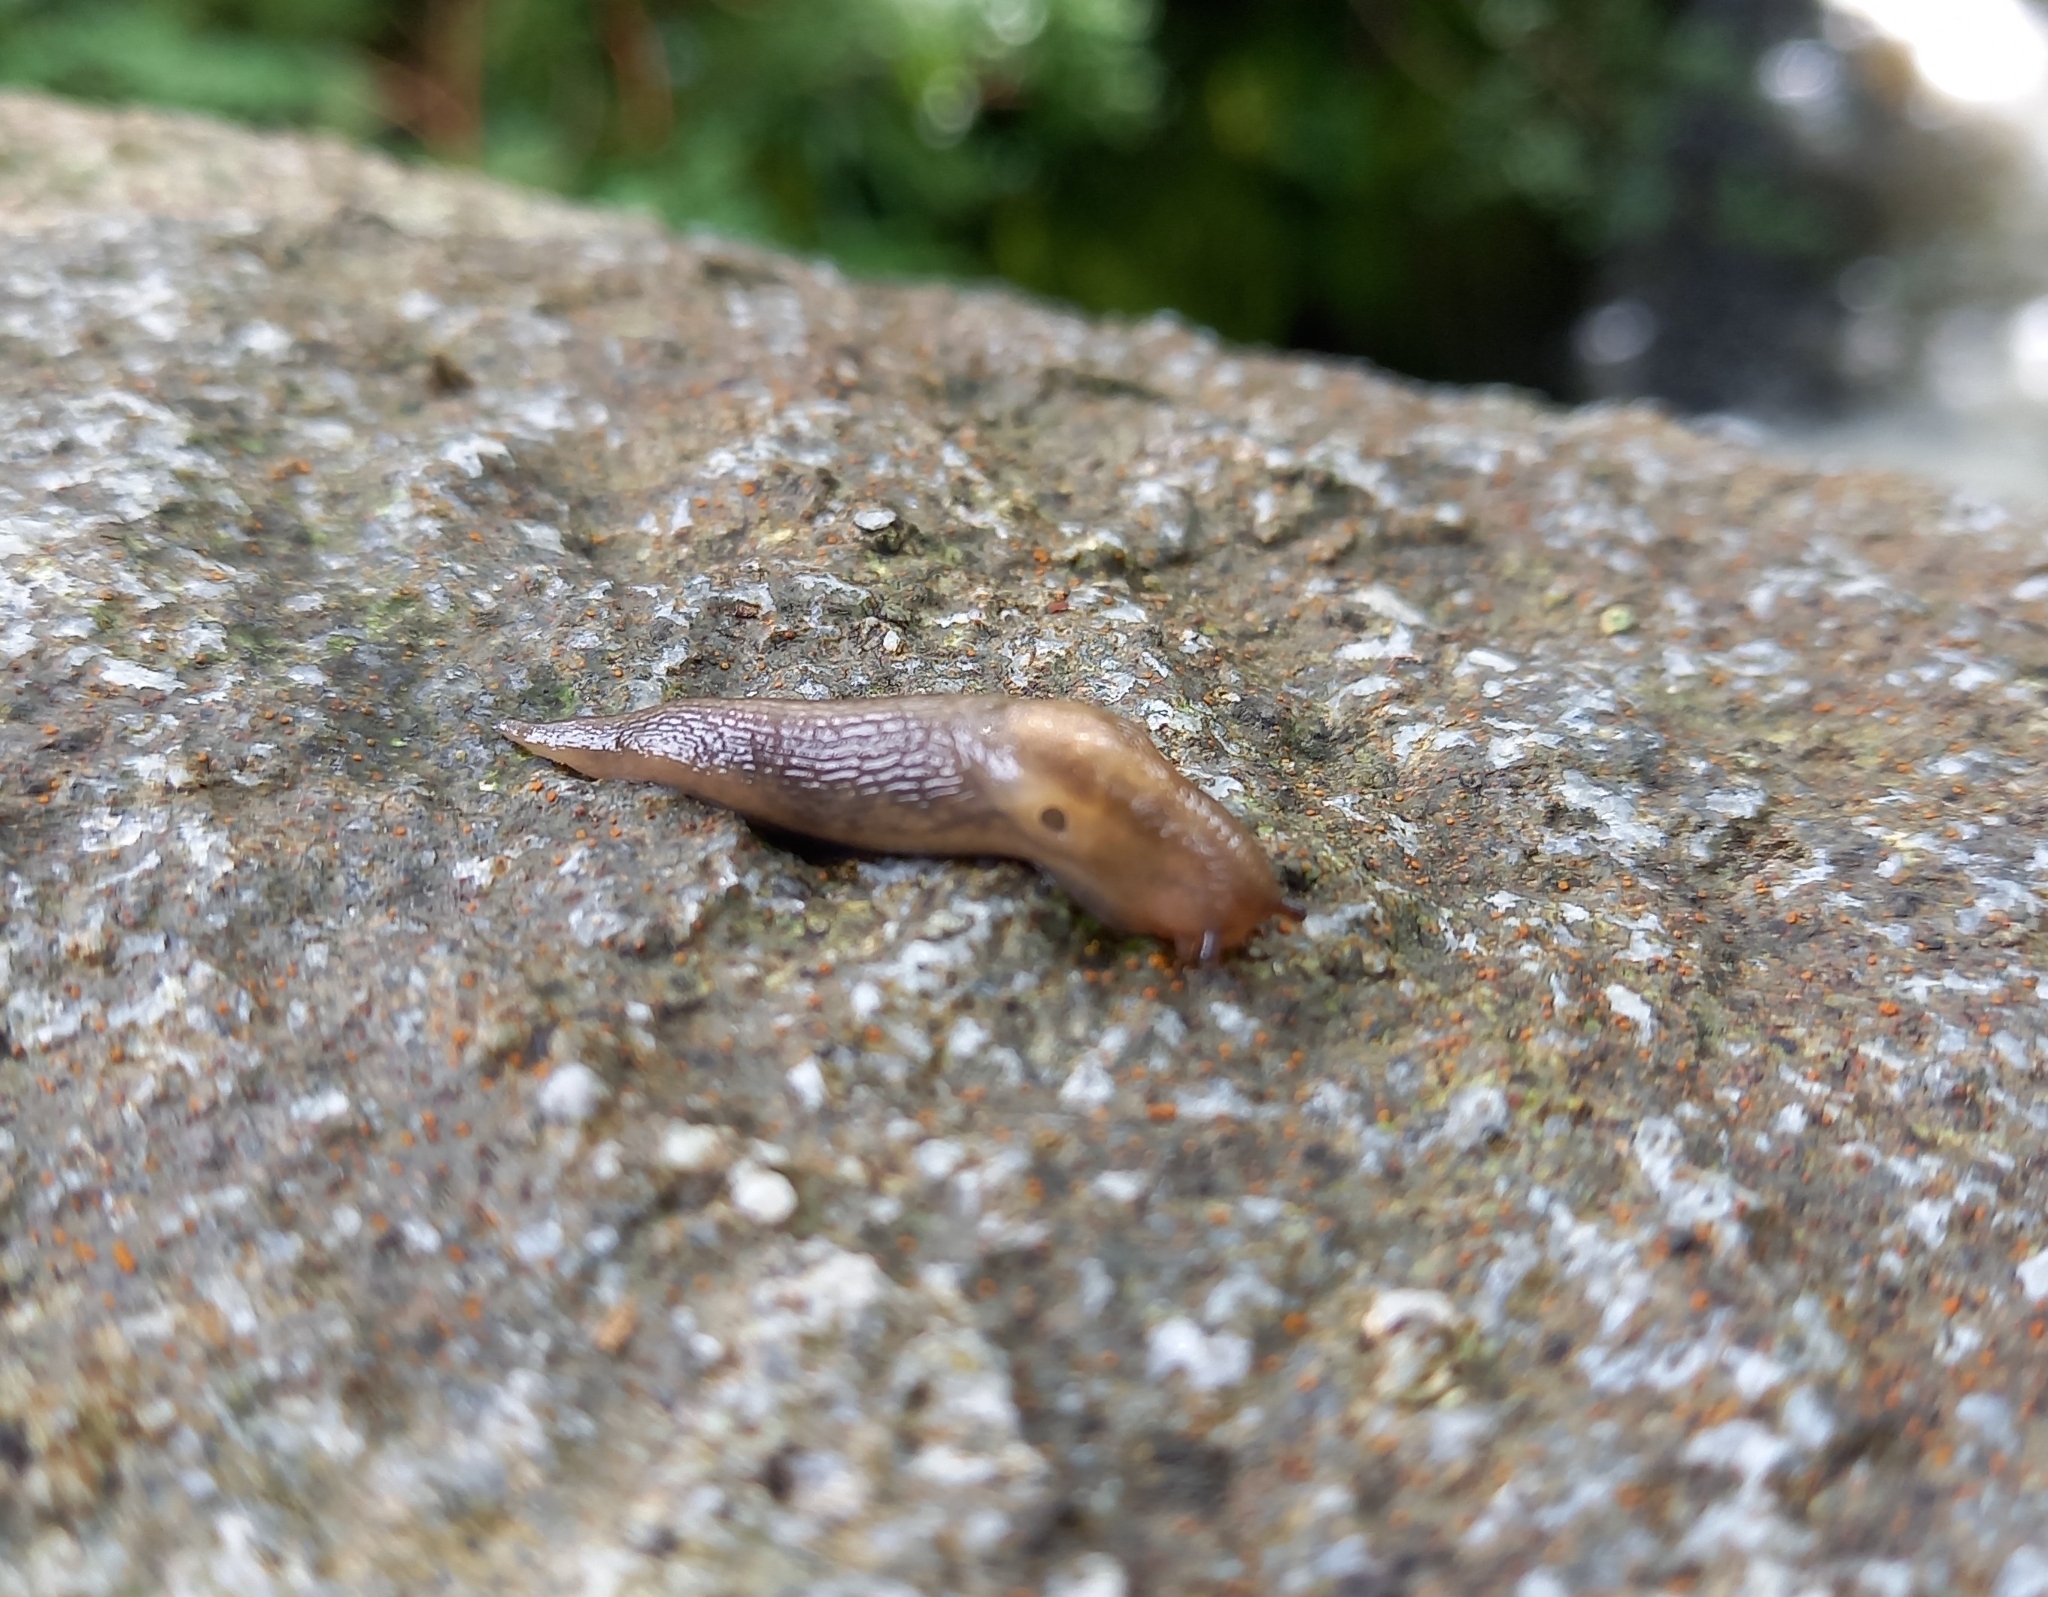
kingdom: Animalia
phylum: Mollusca
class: Gastropoda
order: Stylommatophora
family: Limacidae
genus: Lehmannia
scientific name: Lehmannia marginata
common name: Tree slug
